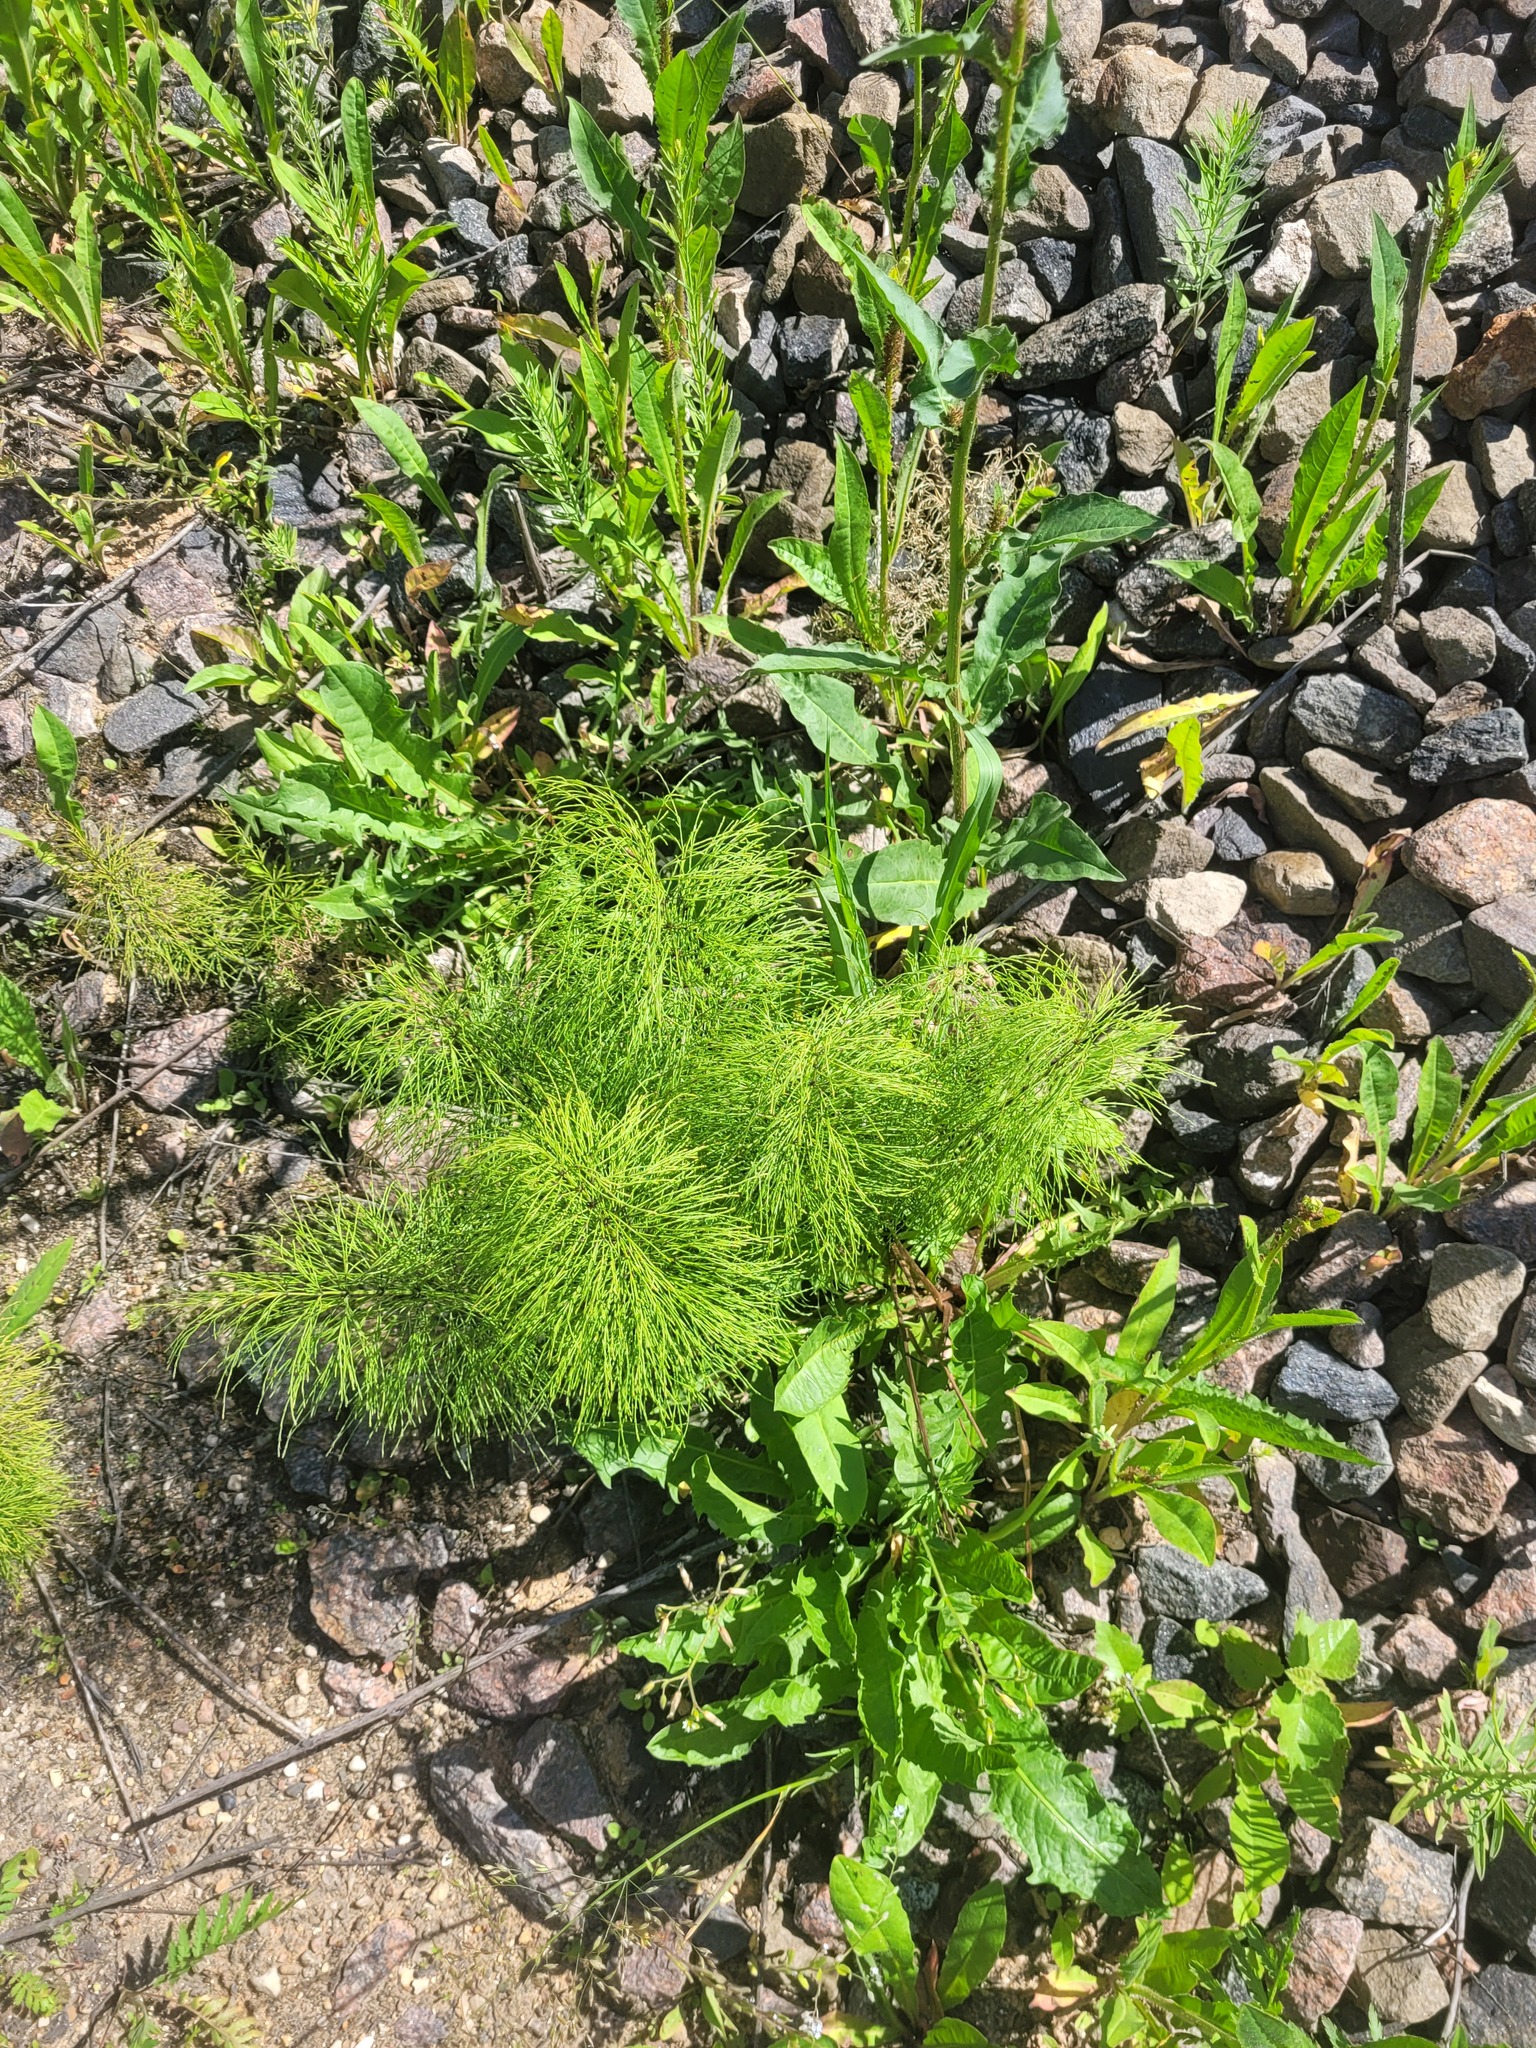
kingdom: Plantae
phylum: Tracheophyta
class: Polypodiopsida
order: Equisetales
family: Equisetaceae
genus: Equisetum
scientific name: Equisetum sylvaticum
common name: Wood horsetail
